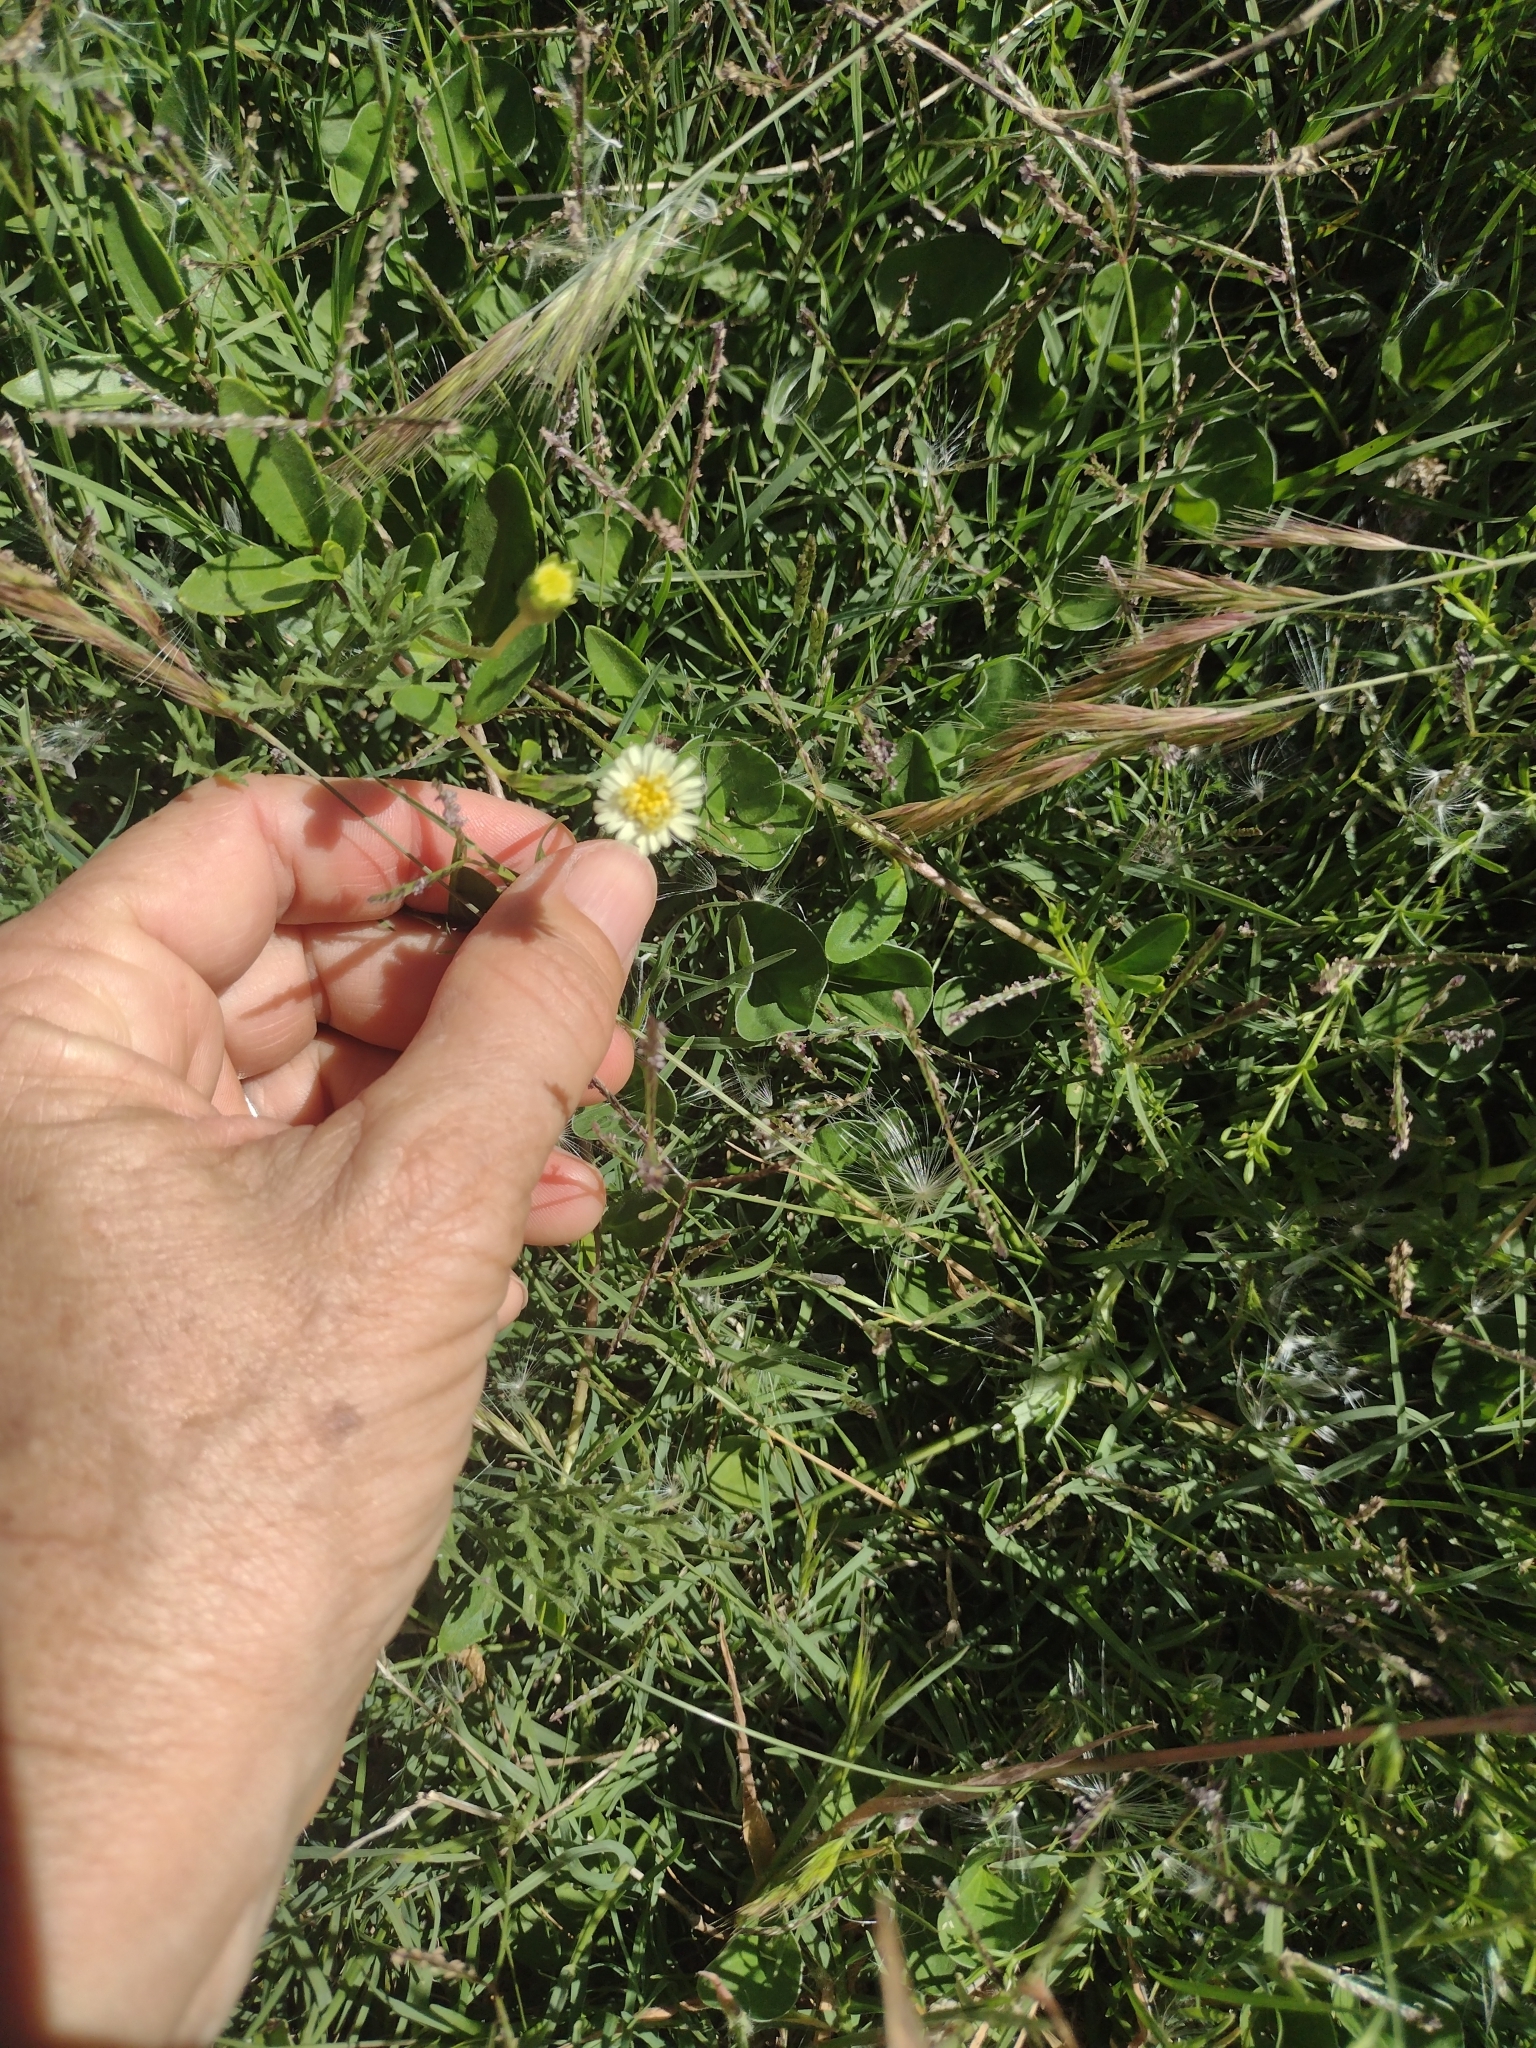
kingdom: Plantae
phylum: Tracheophyta
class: Magnoliopsida
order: Asterales
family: Asteraceae
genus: Eclipta
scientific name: Eclipta elliptica
